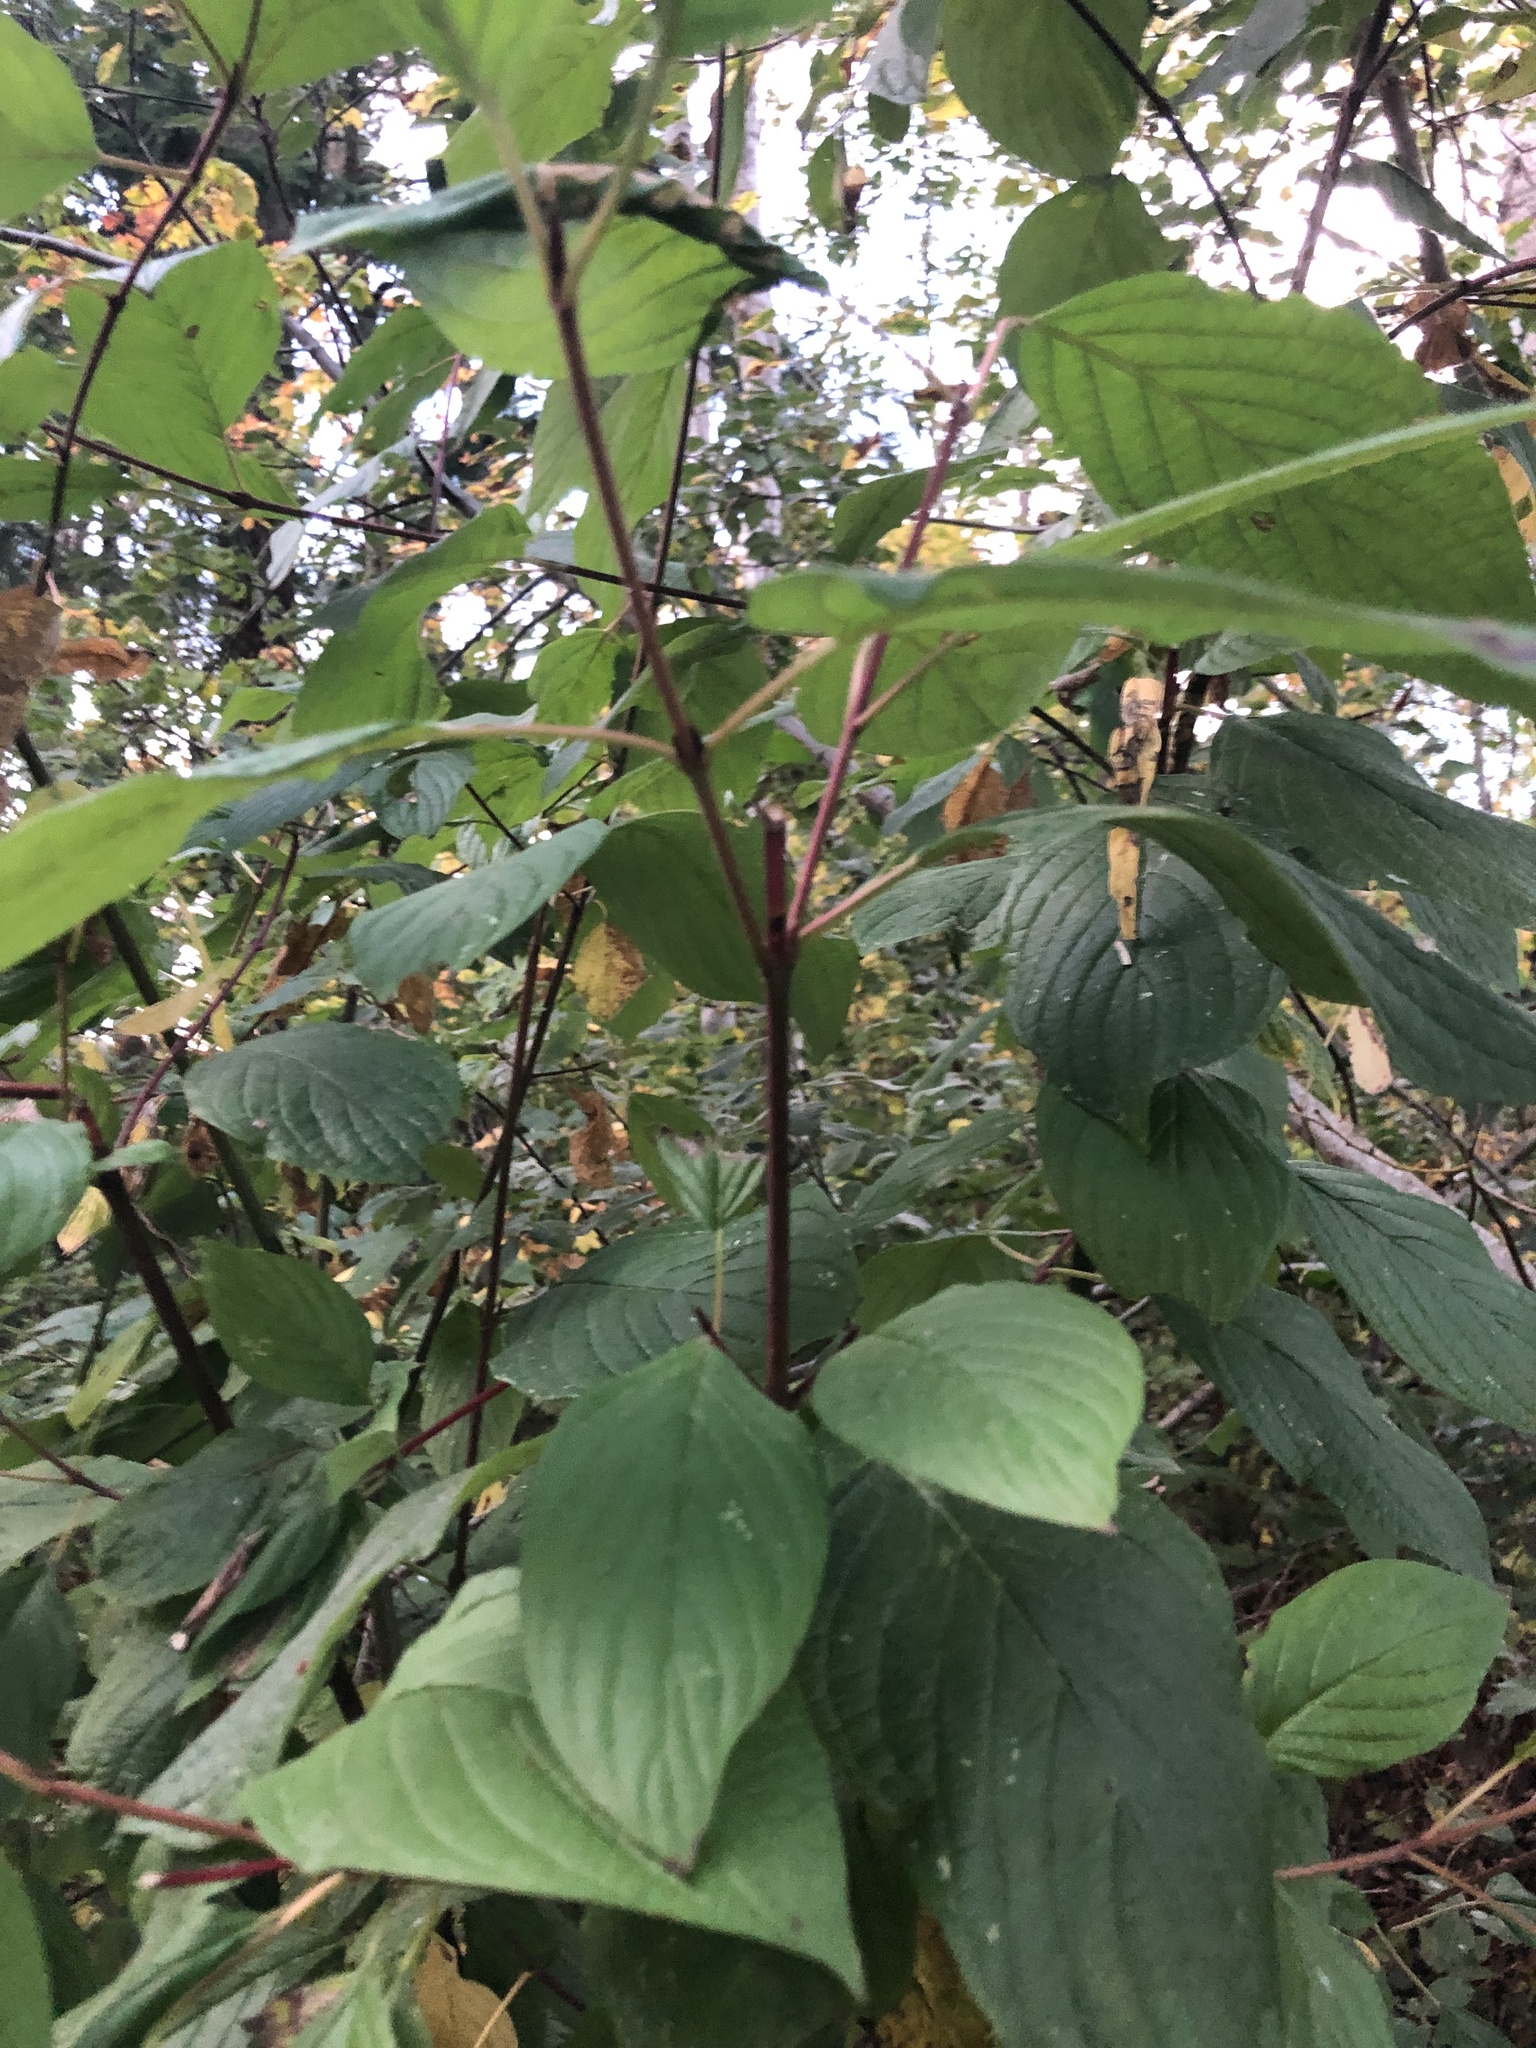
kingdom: Plantae
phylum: Tracheophyta
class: Magnoliopsida
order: Cornales
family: Cornaceae
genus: Cornus
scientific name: Cornus sericea
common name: Red-osier dogwood
